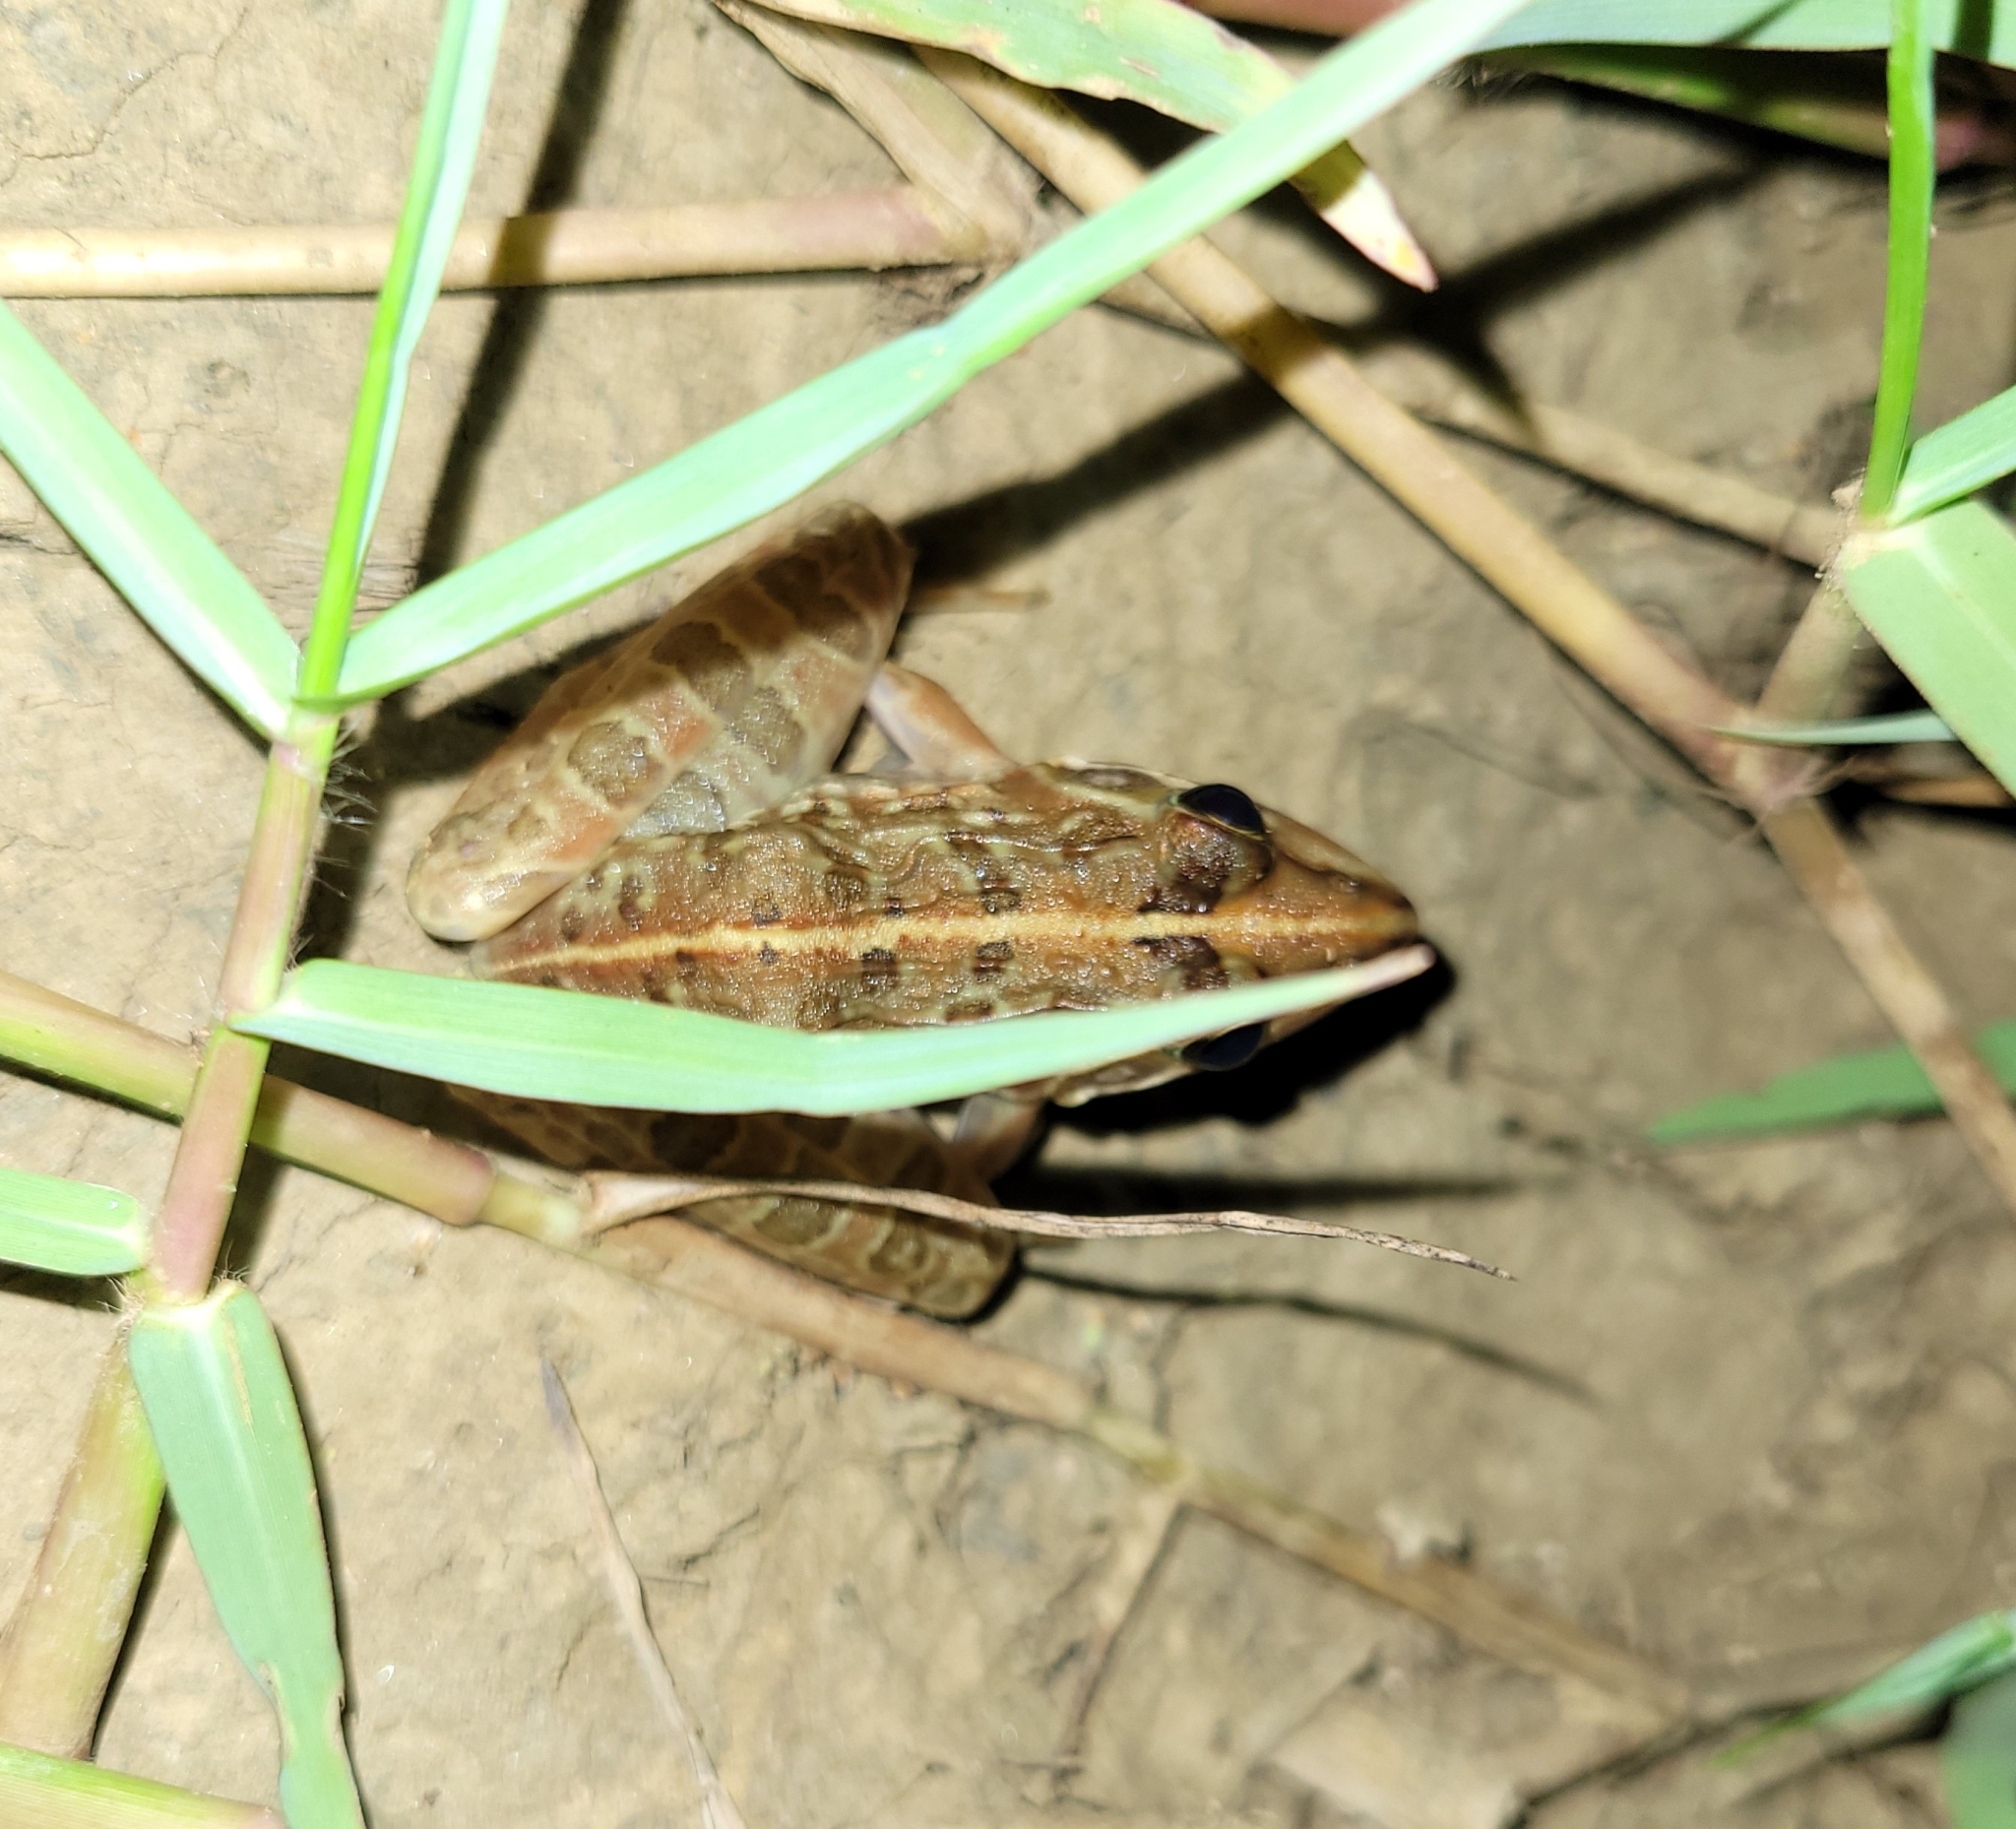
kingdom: Animalia
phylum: Chordata
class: Amphibia
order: Anura
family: Pyxicephalidae
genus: Amietia
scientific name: Amietia delalandii
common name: Delalande's river frog
